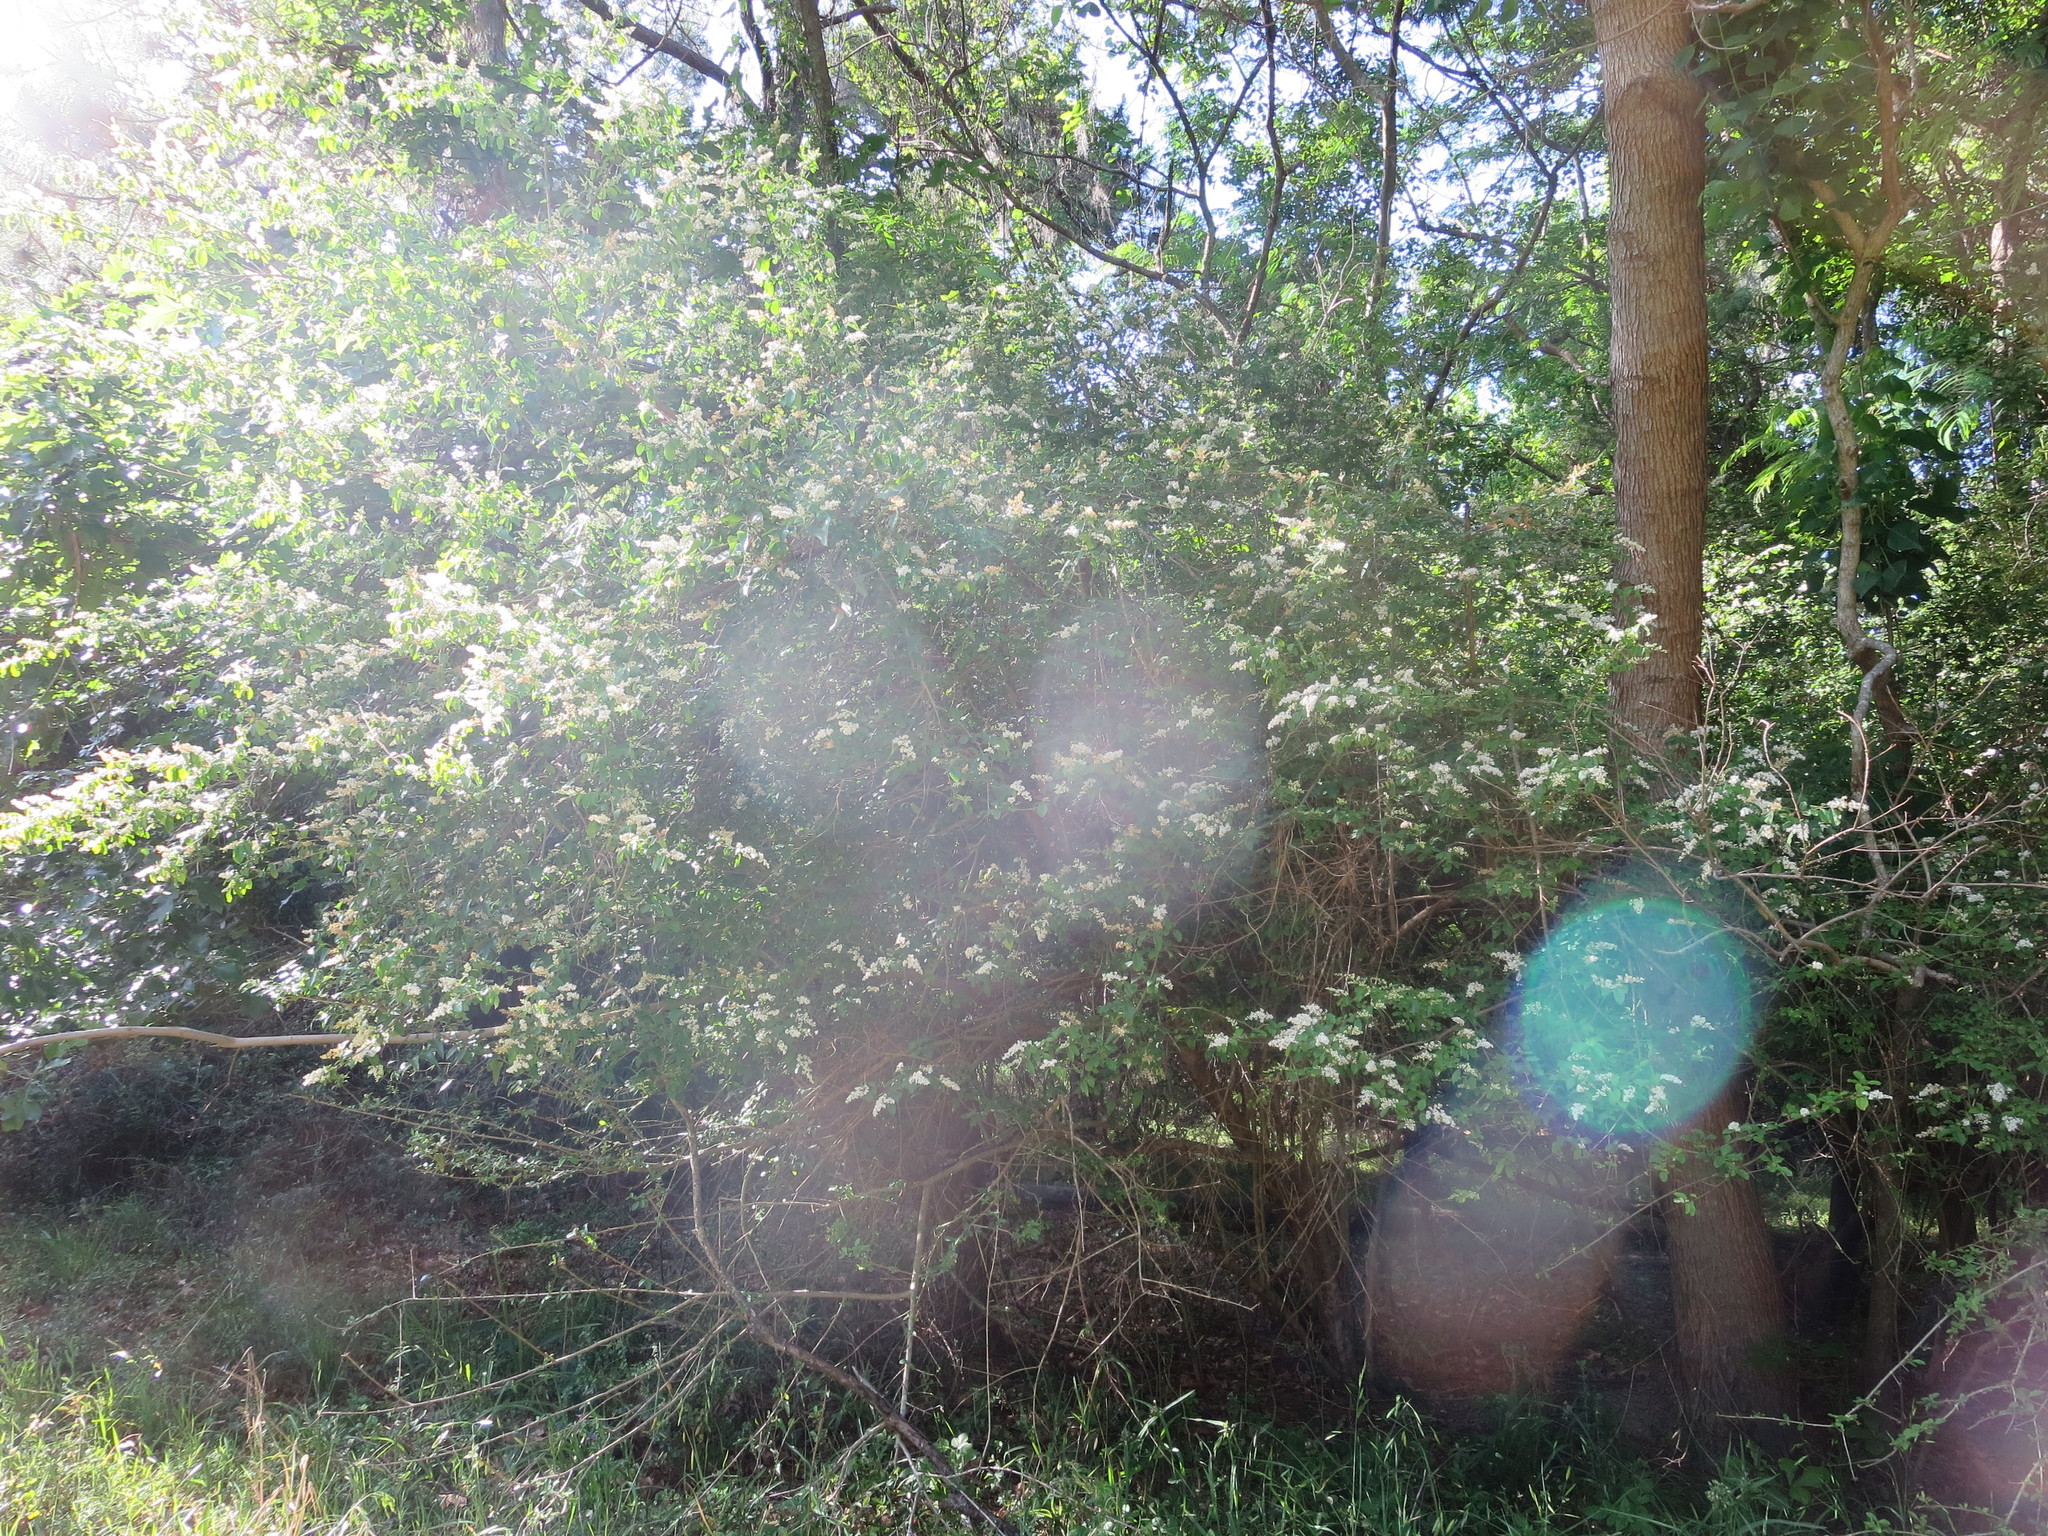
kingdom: Plantae
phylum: Tracheophyta
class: Magnoliopsida
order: Lamiales
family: Oleaceae
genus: Ligustrum
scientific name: Ligustrum sinense
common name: Chinese privet
